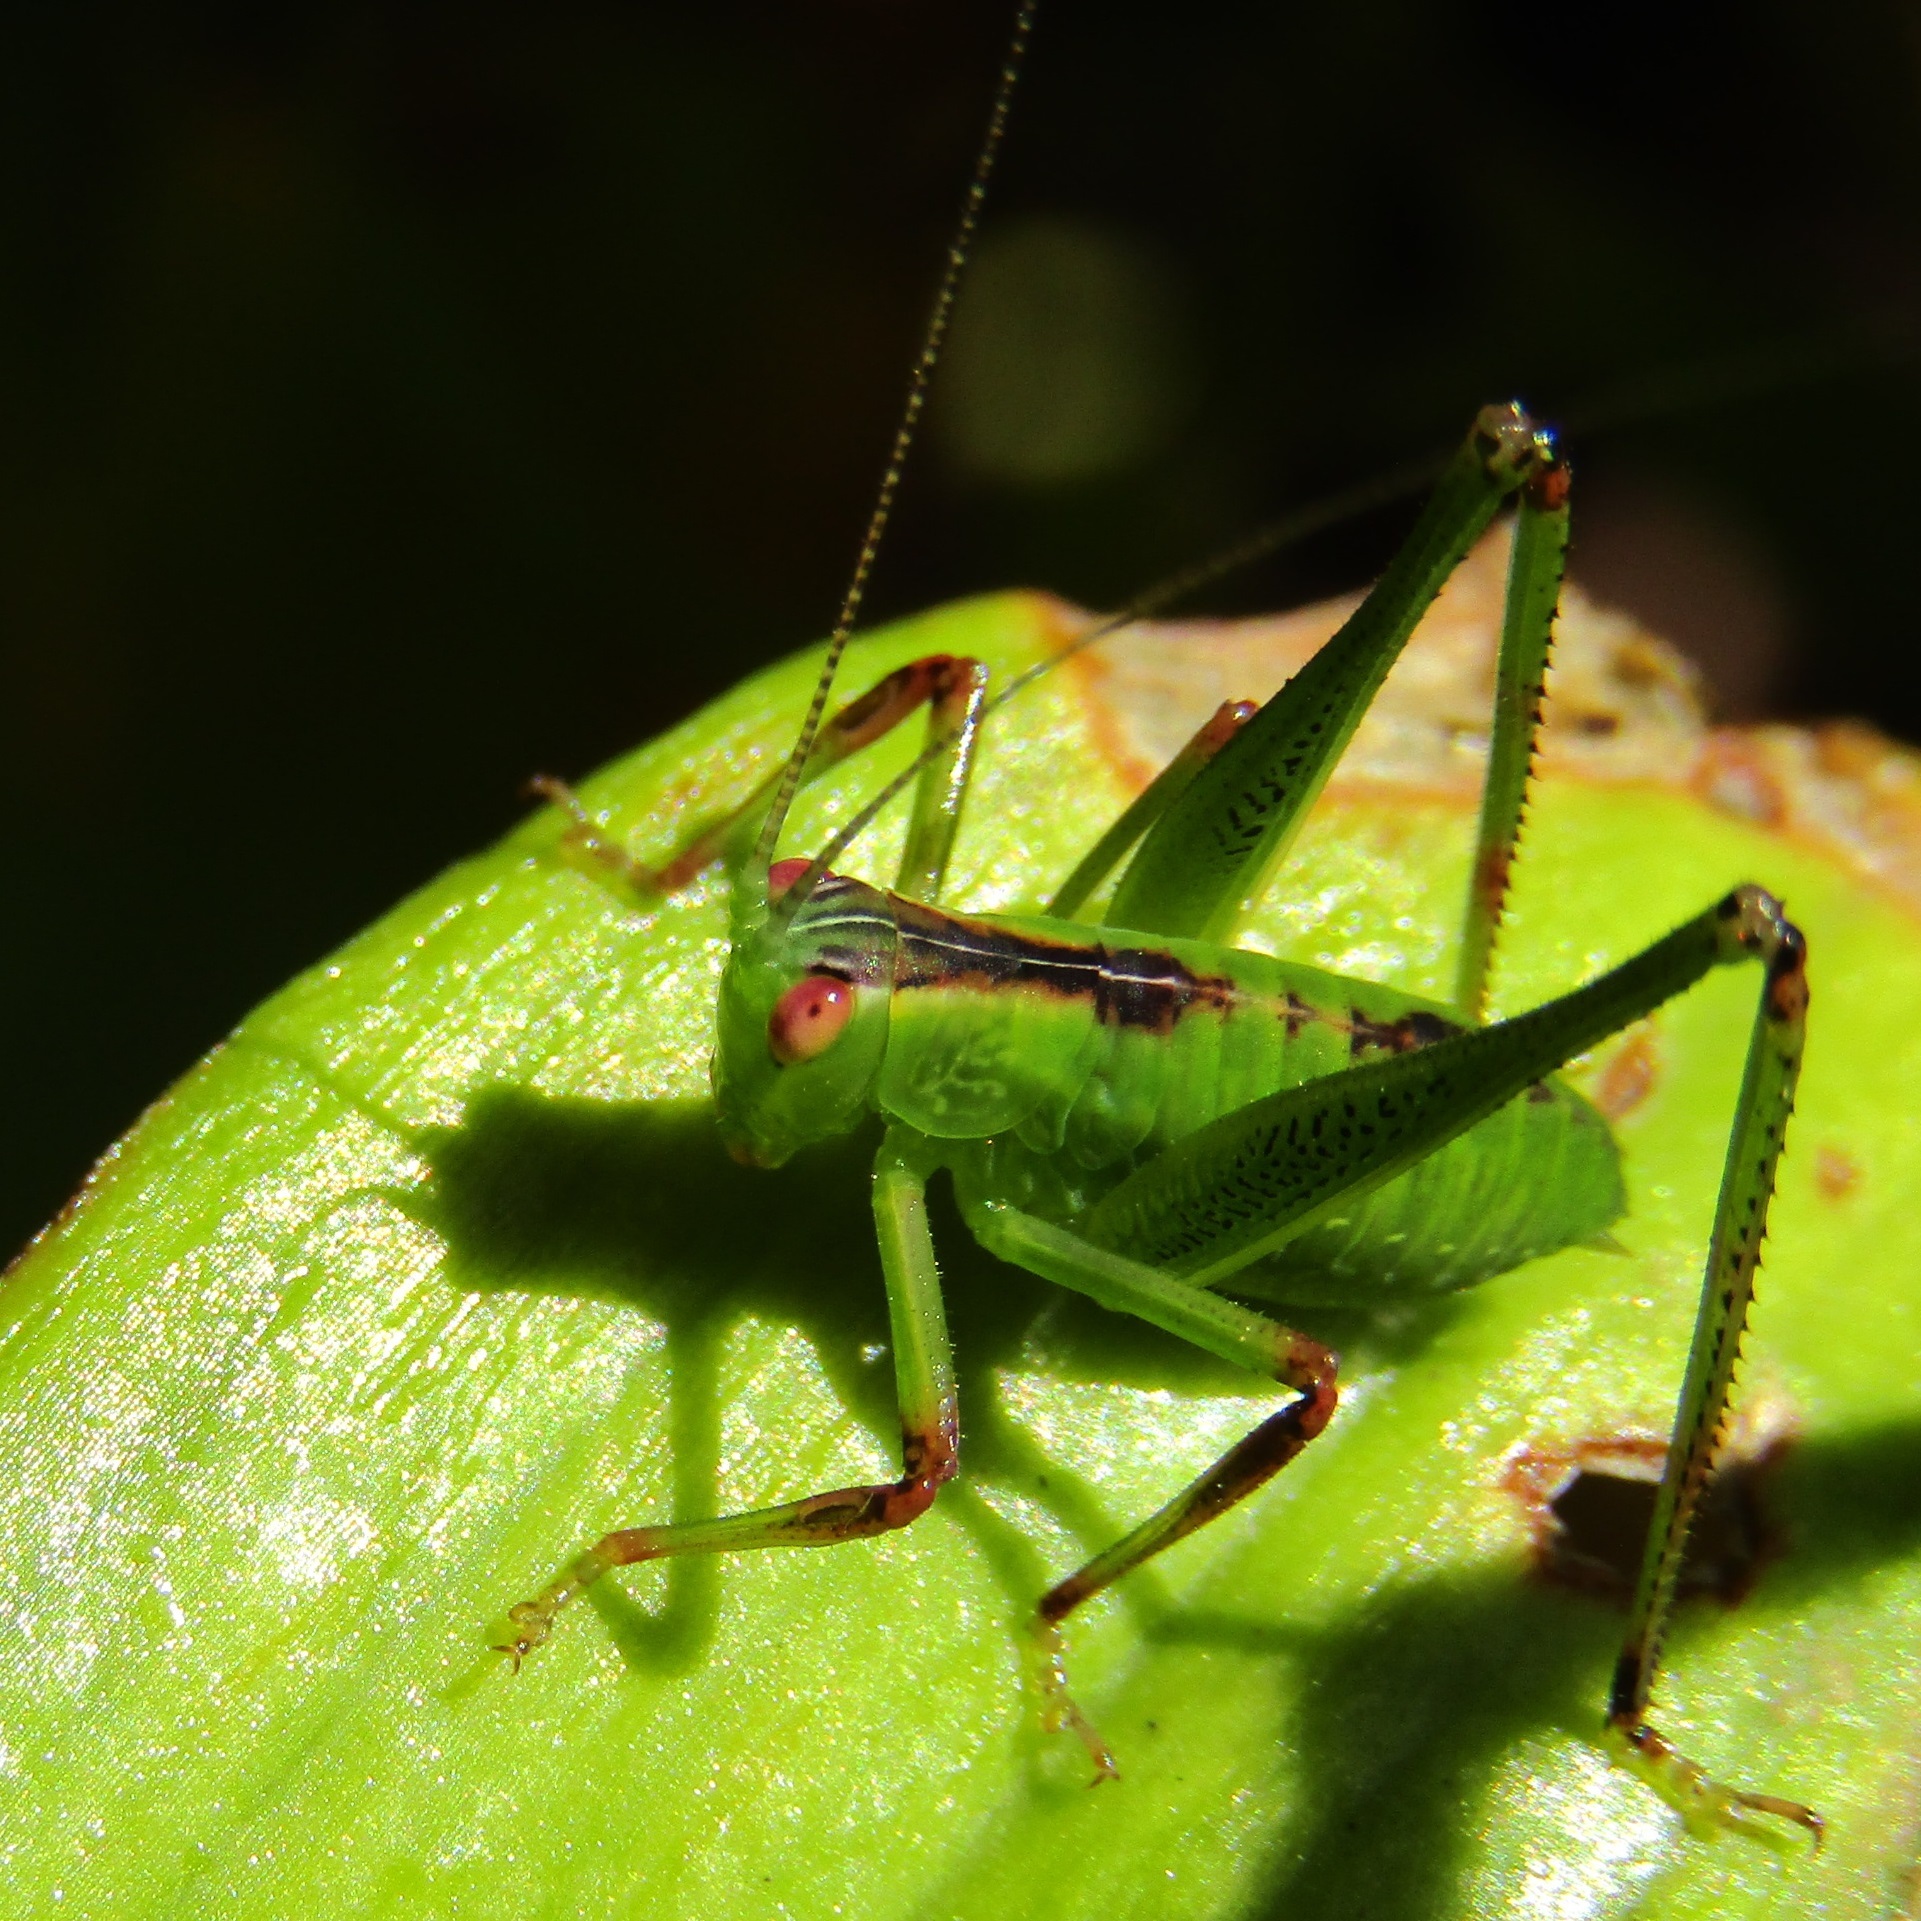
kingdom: Animalia
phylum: Arthropoda
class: Insecta
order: Orthoptera
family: Tettigoniidae
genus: Caedicia
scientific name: Caedicia simplex
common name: Common garden katydid
